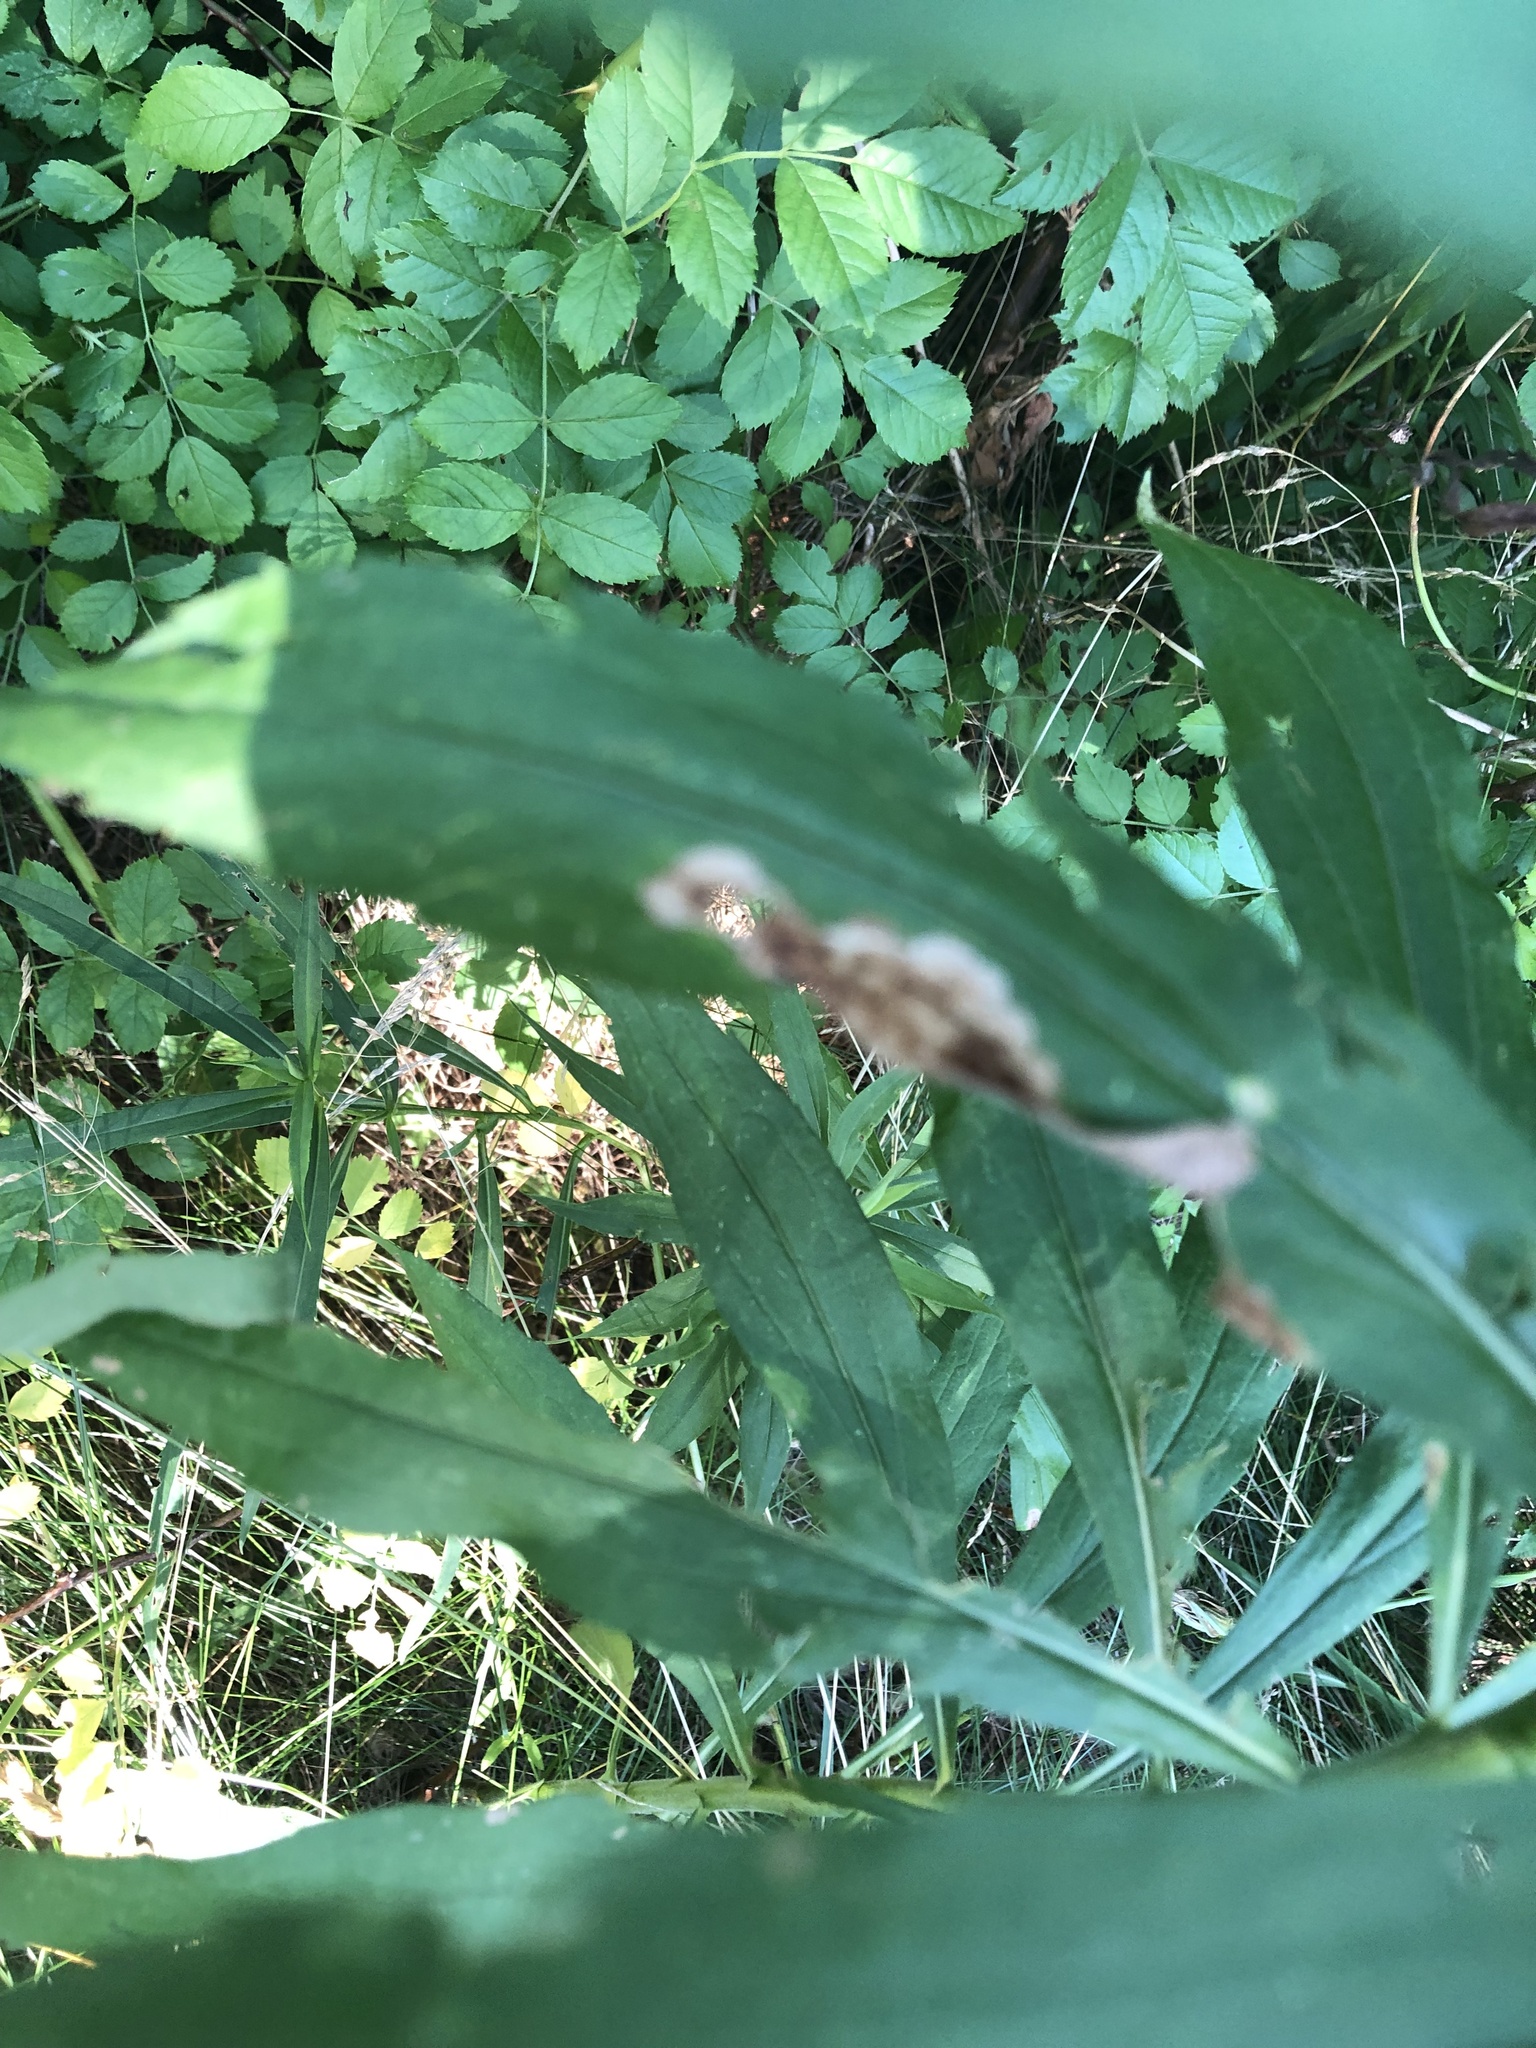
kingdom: Animalia
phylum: Arthropoda
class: Insecta
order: Diptera
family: Agromyzidae
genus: Nemorimyza
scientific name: Nemorimyza posticata
